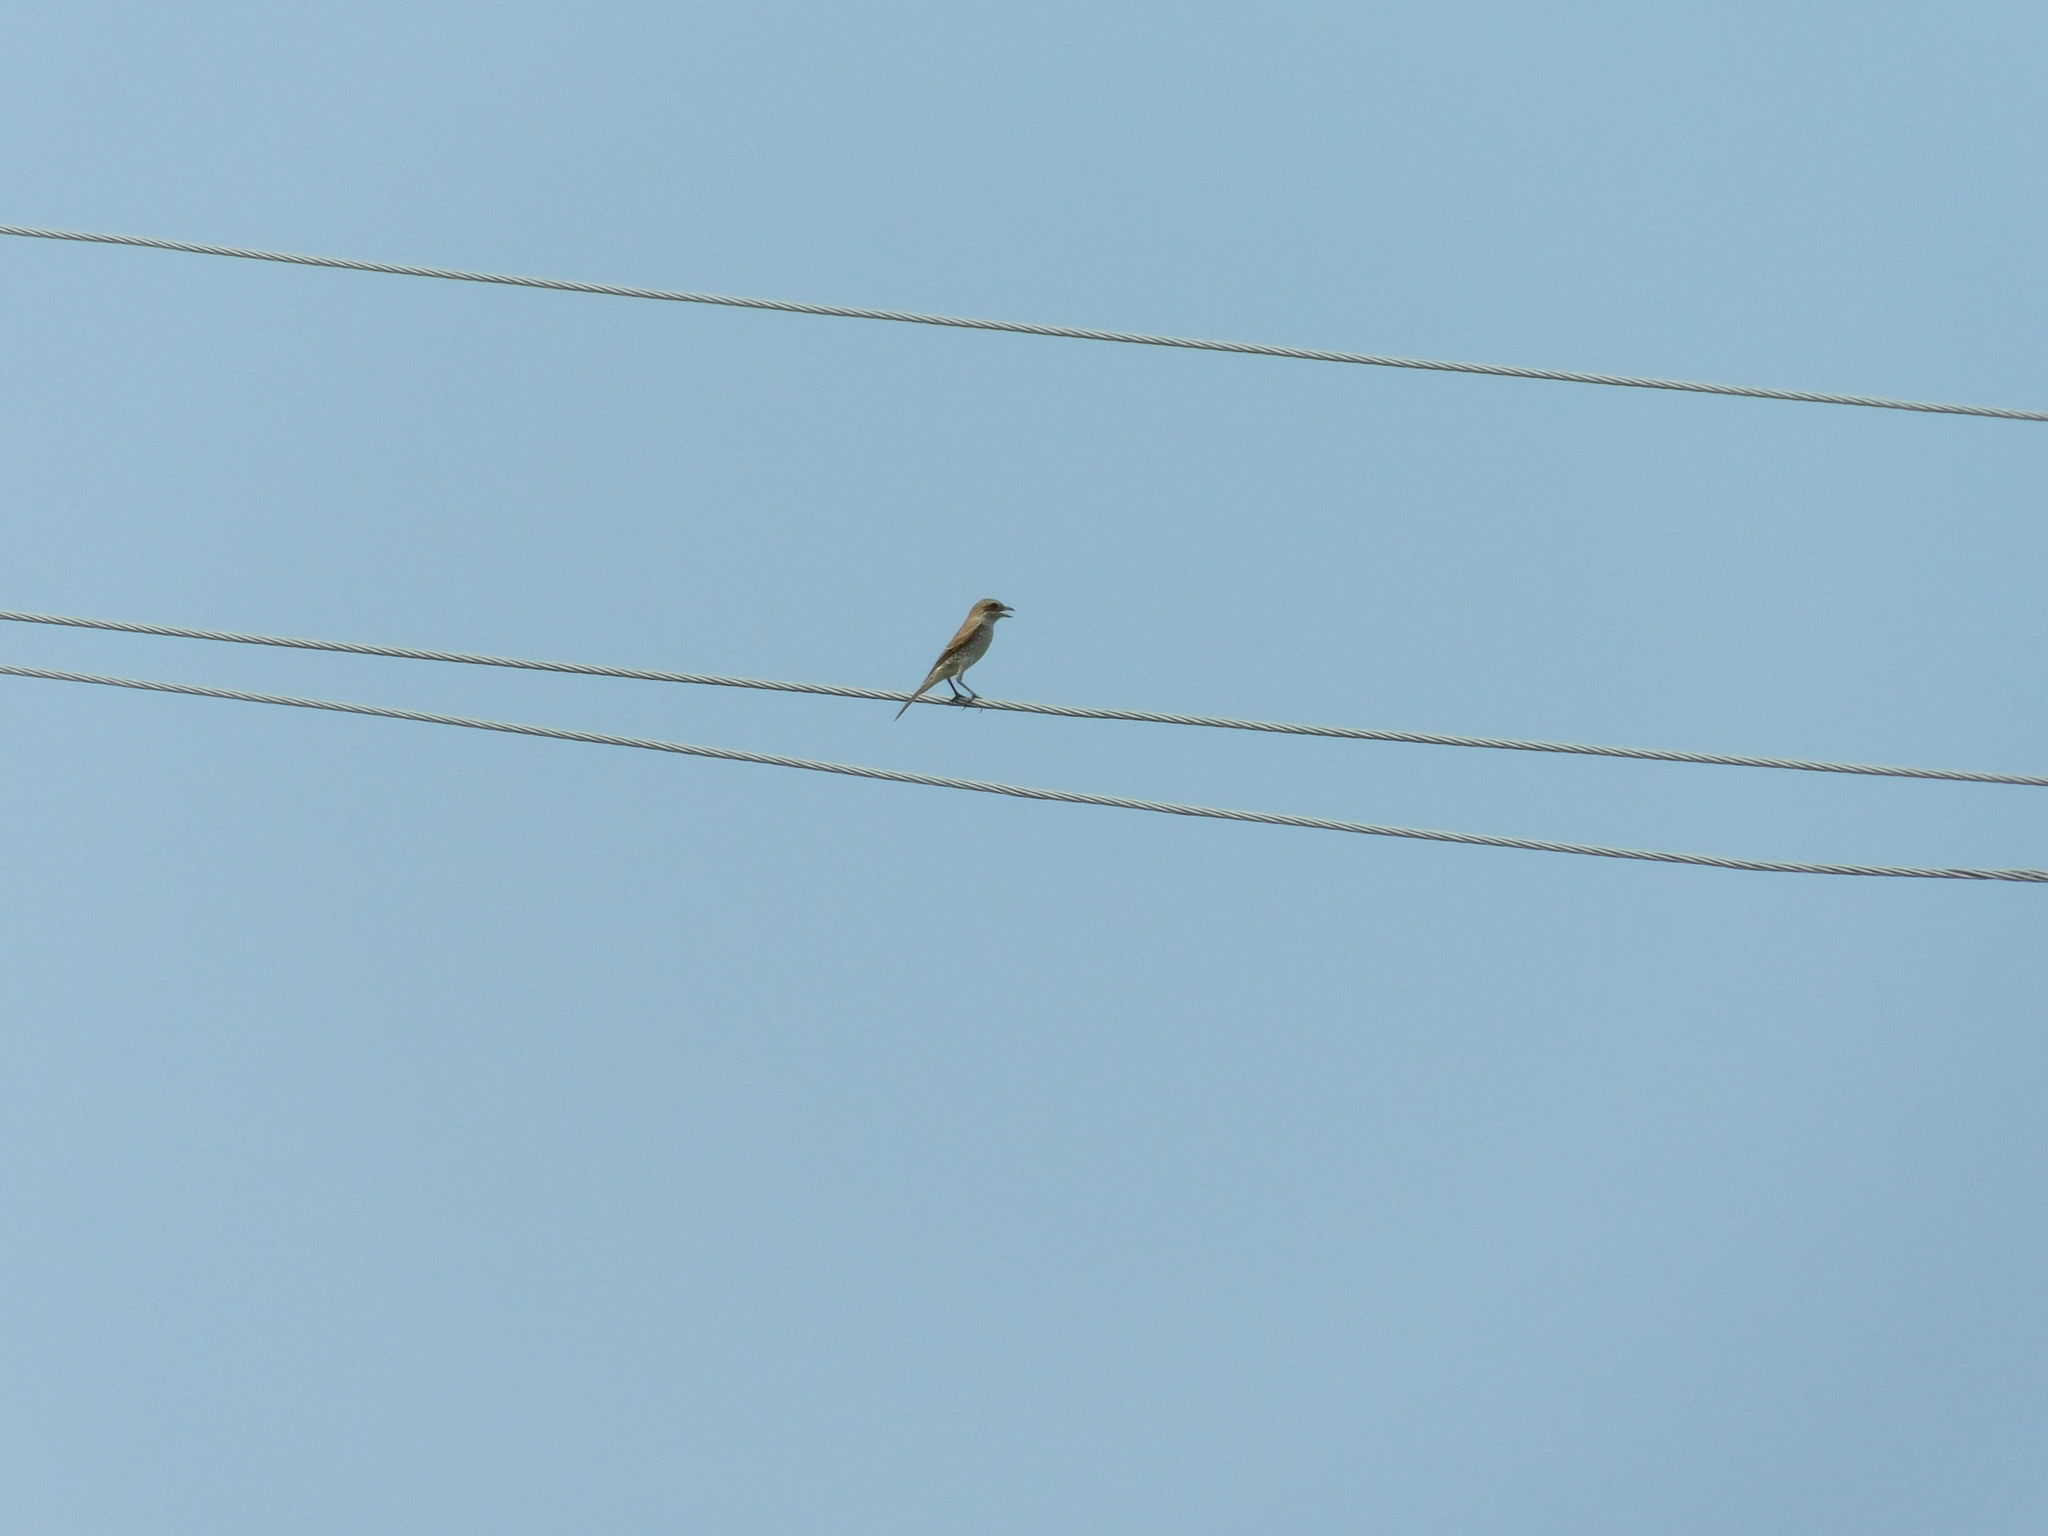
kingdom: Animalia
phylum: Chordata
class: Aves
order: Passeriformes
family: Laniidae
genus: Lanius
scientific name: Lanius collurio
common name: Red-backed shrike
